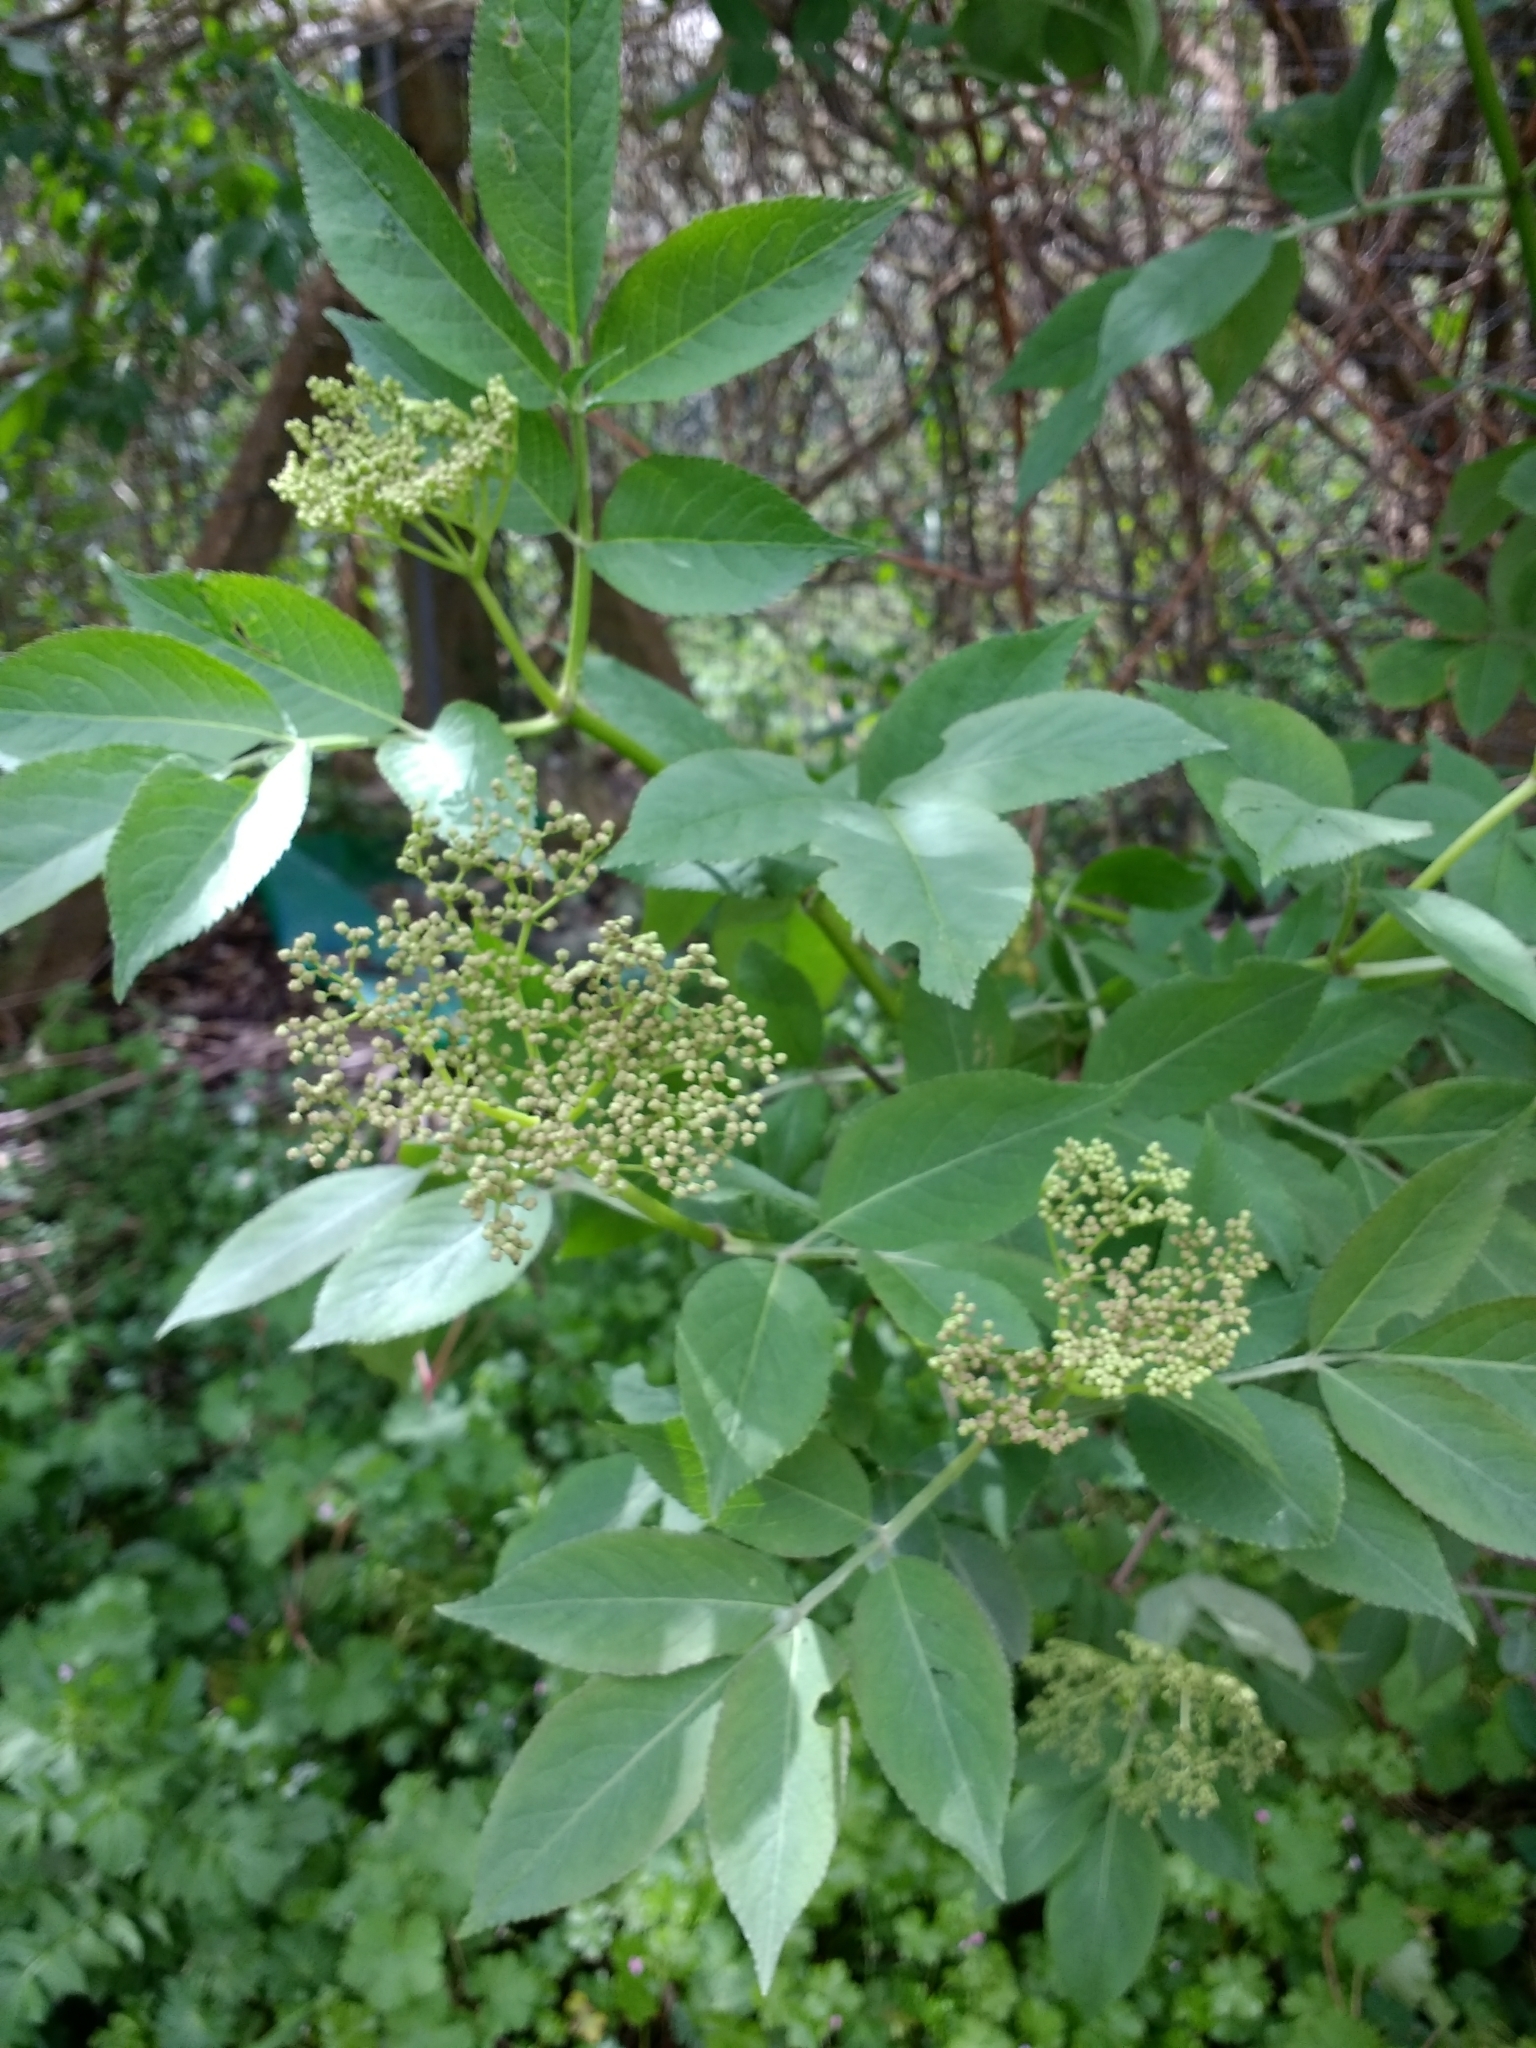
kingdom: Plantae
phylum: Tracheophyta
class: Magnoliopsida
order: Dipsacales
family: Viburnaceae
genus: Sambucus
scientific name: Sambucus nigra
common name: Elder
